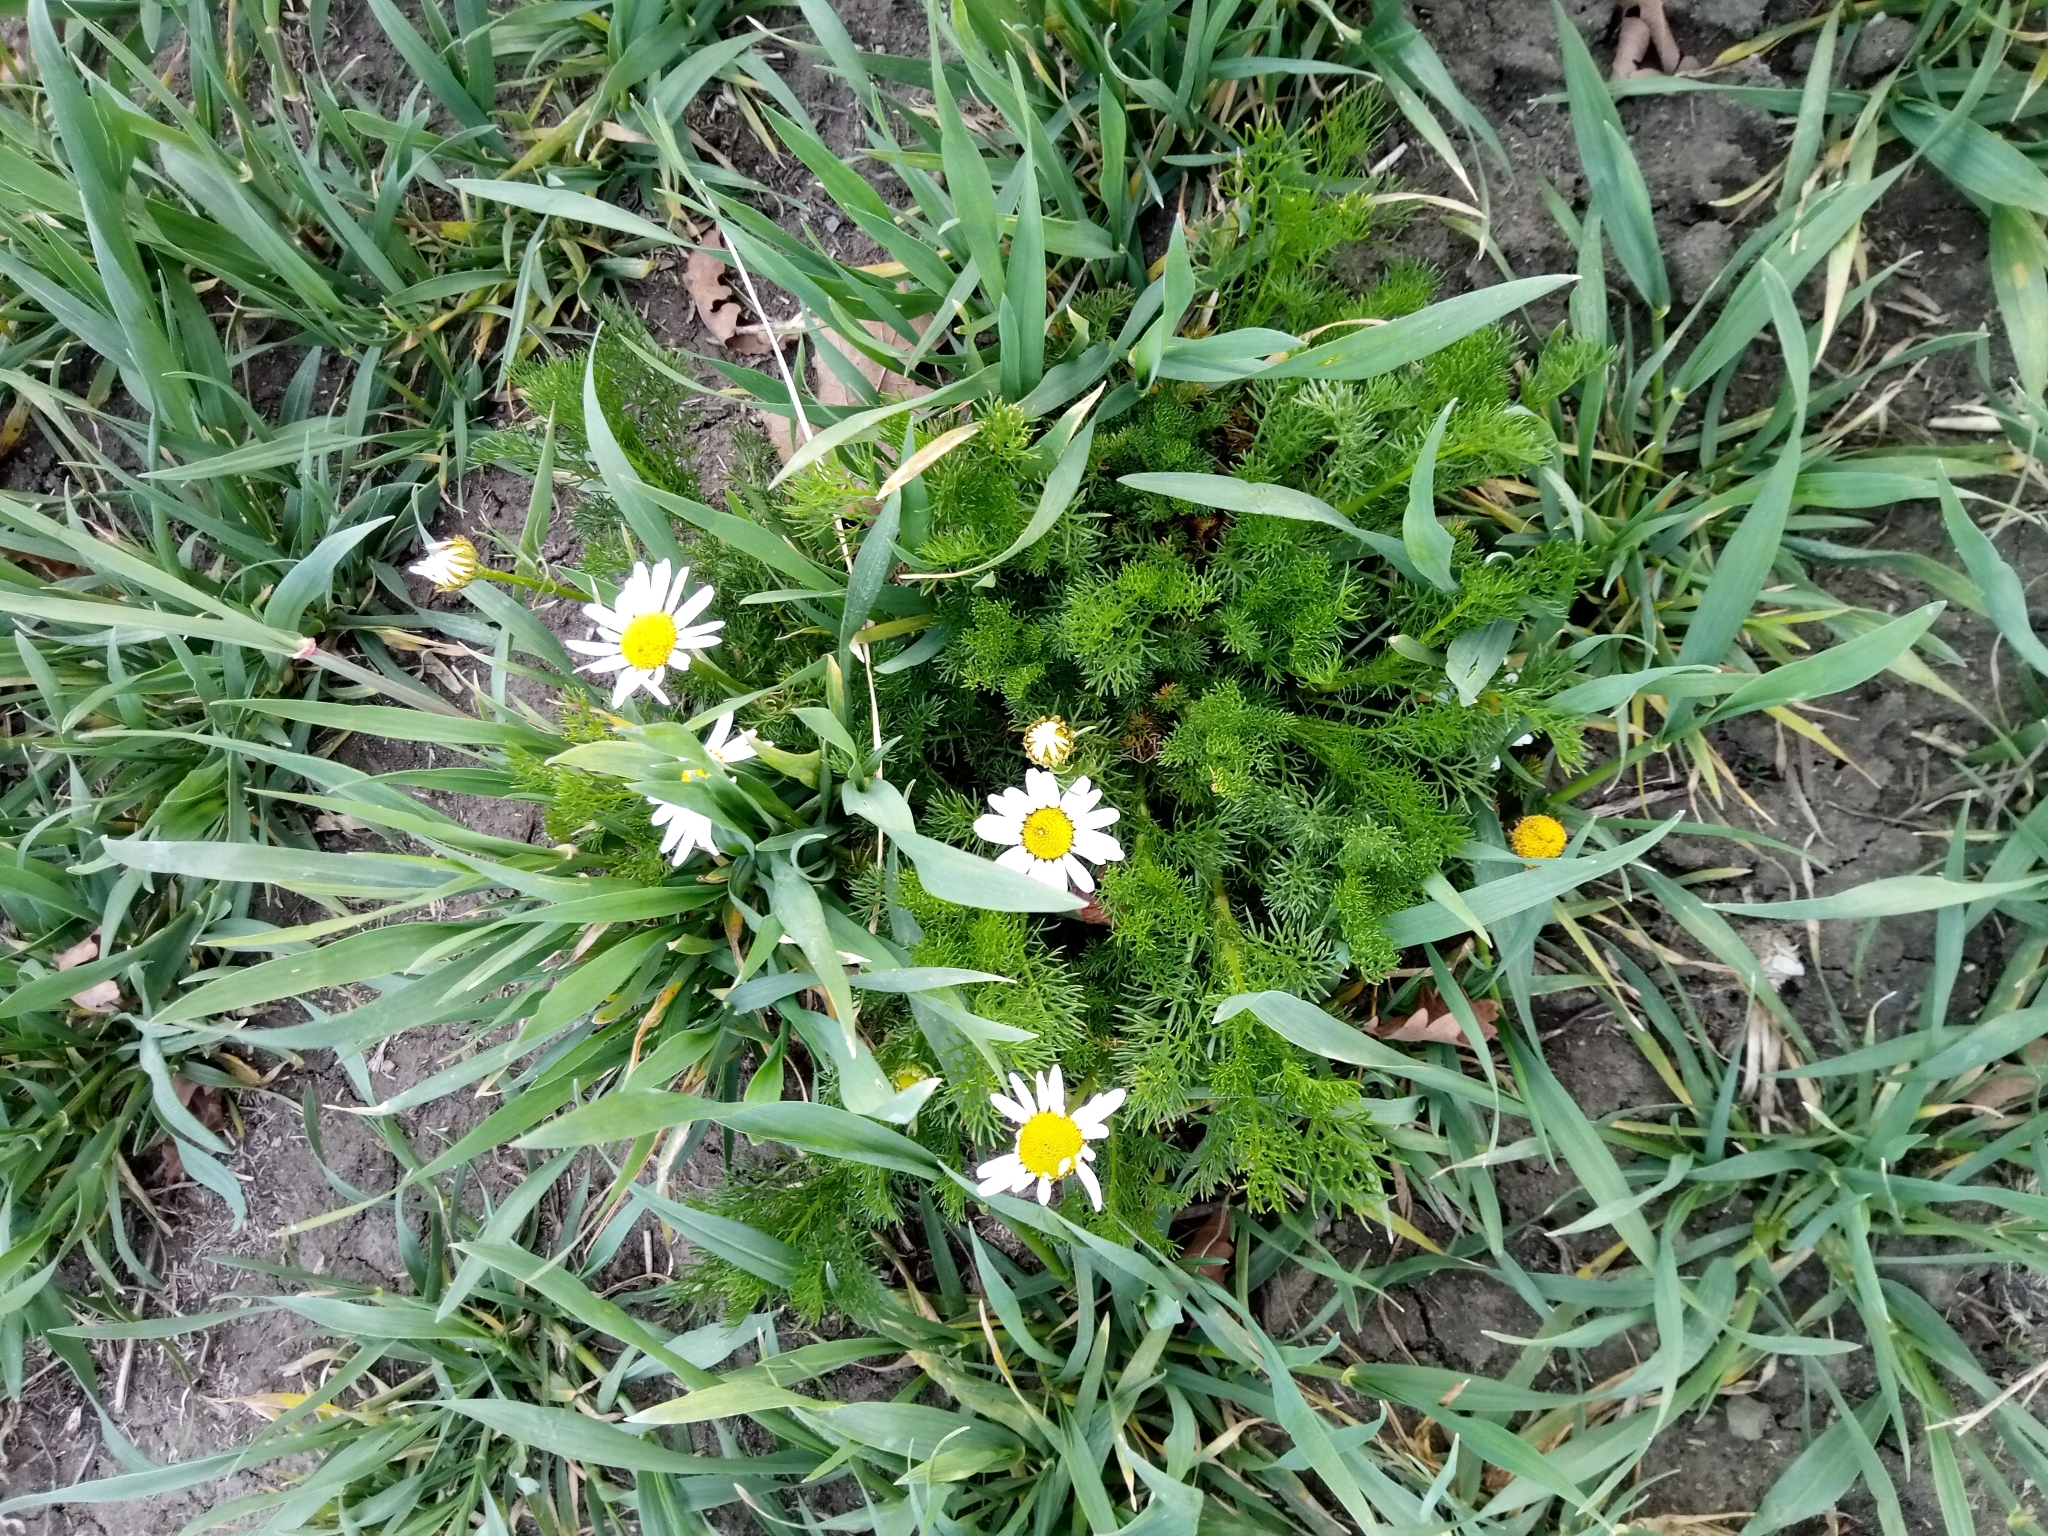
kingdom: Plantae
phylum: Tracheophyta
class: Magnoliopsida
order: Asterales
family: Asteraceae
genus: Tripleurospermum
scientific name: Tripleurospermum inodorum
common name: Scentless mayweed
